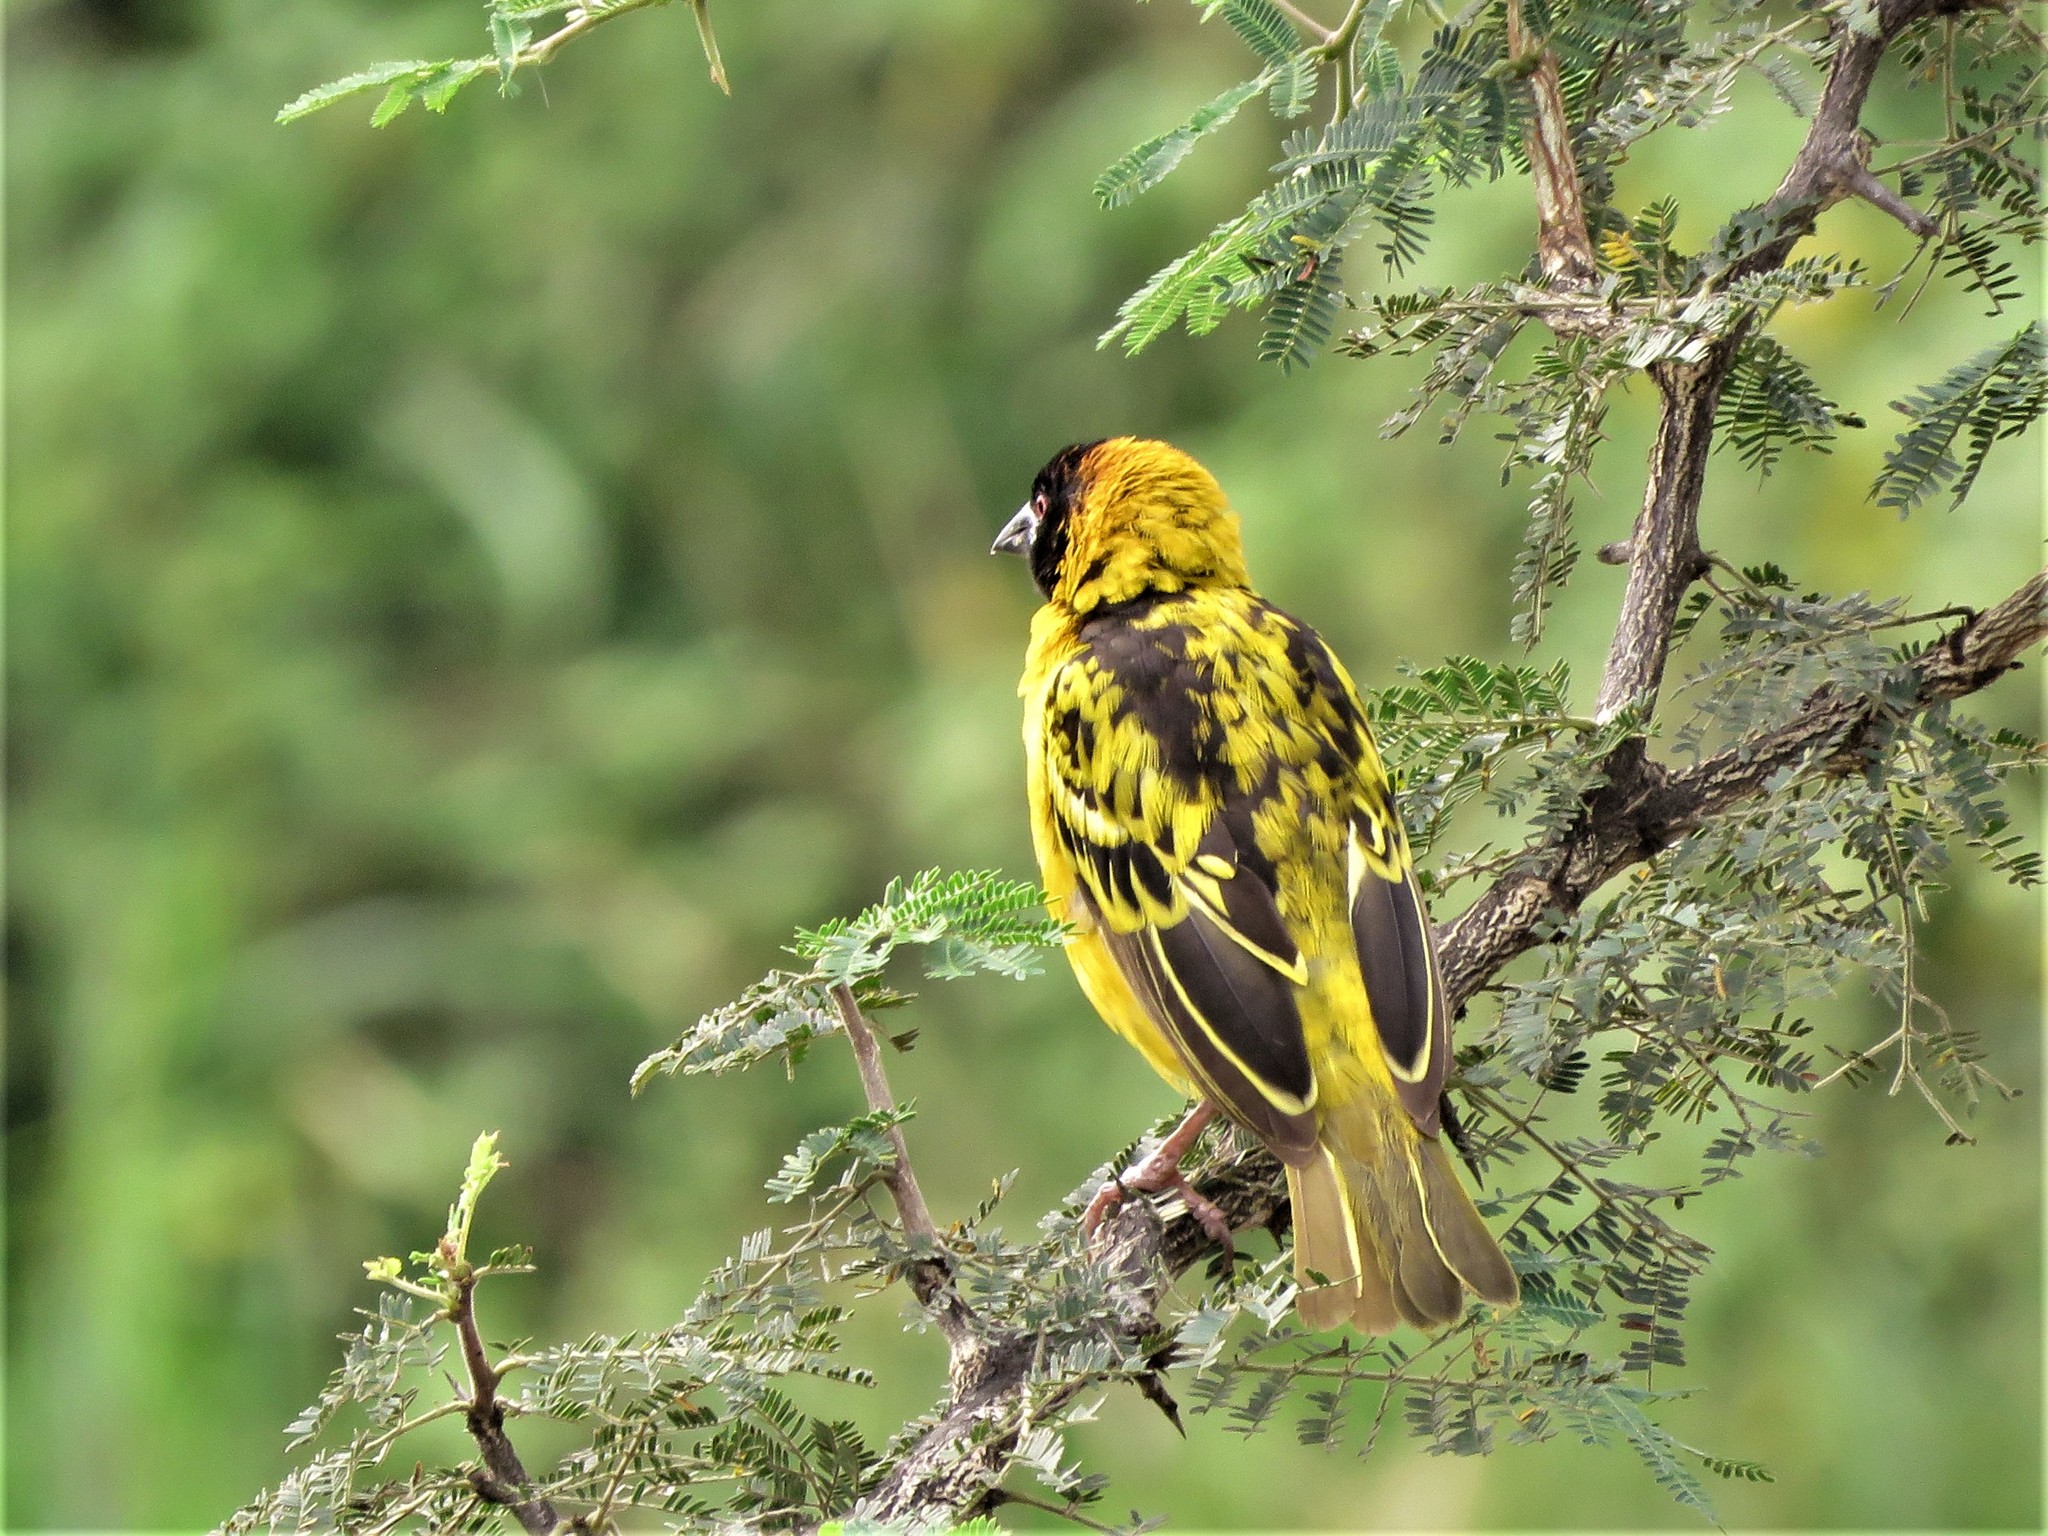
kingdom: Animalia
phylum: Chordata
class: Aves
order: Passeriformes
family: Ploceidae
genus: Ploceus
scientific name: Ploceus cucullatus
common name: Village weaver
